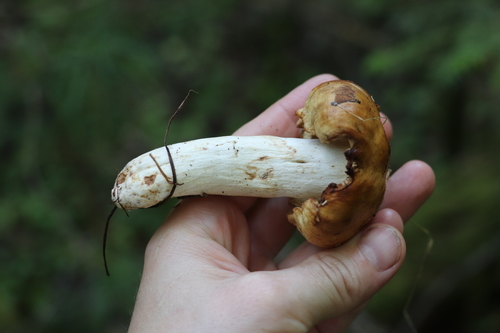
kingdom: Fungi
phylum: Basidiomycota
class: Agaricomycetes
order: Russulales
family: Russulaceae
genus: Russula
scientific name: Russula foetens
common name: Foetid russula
